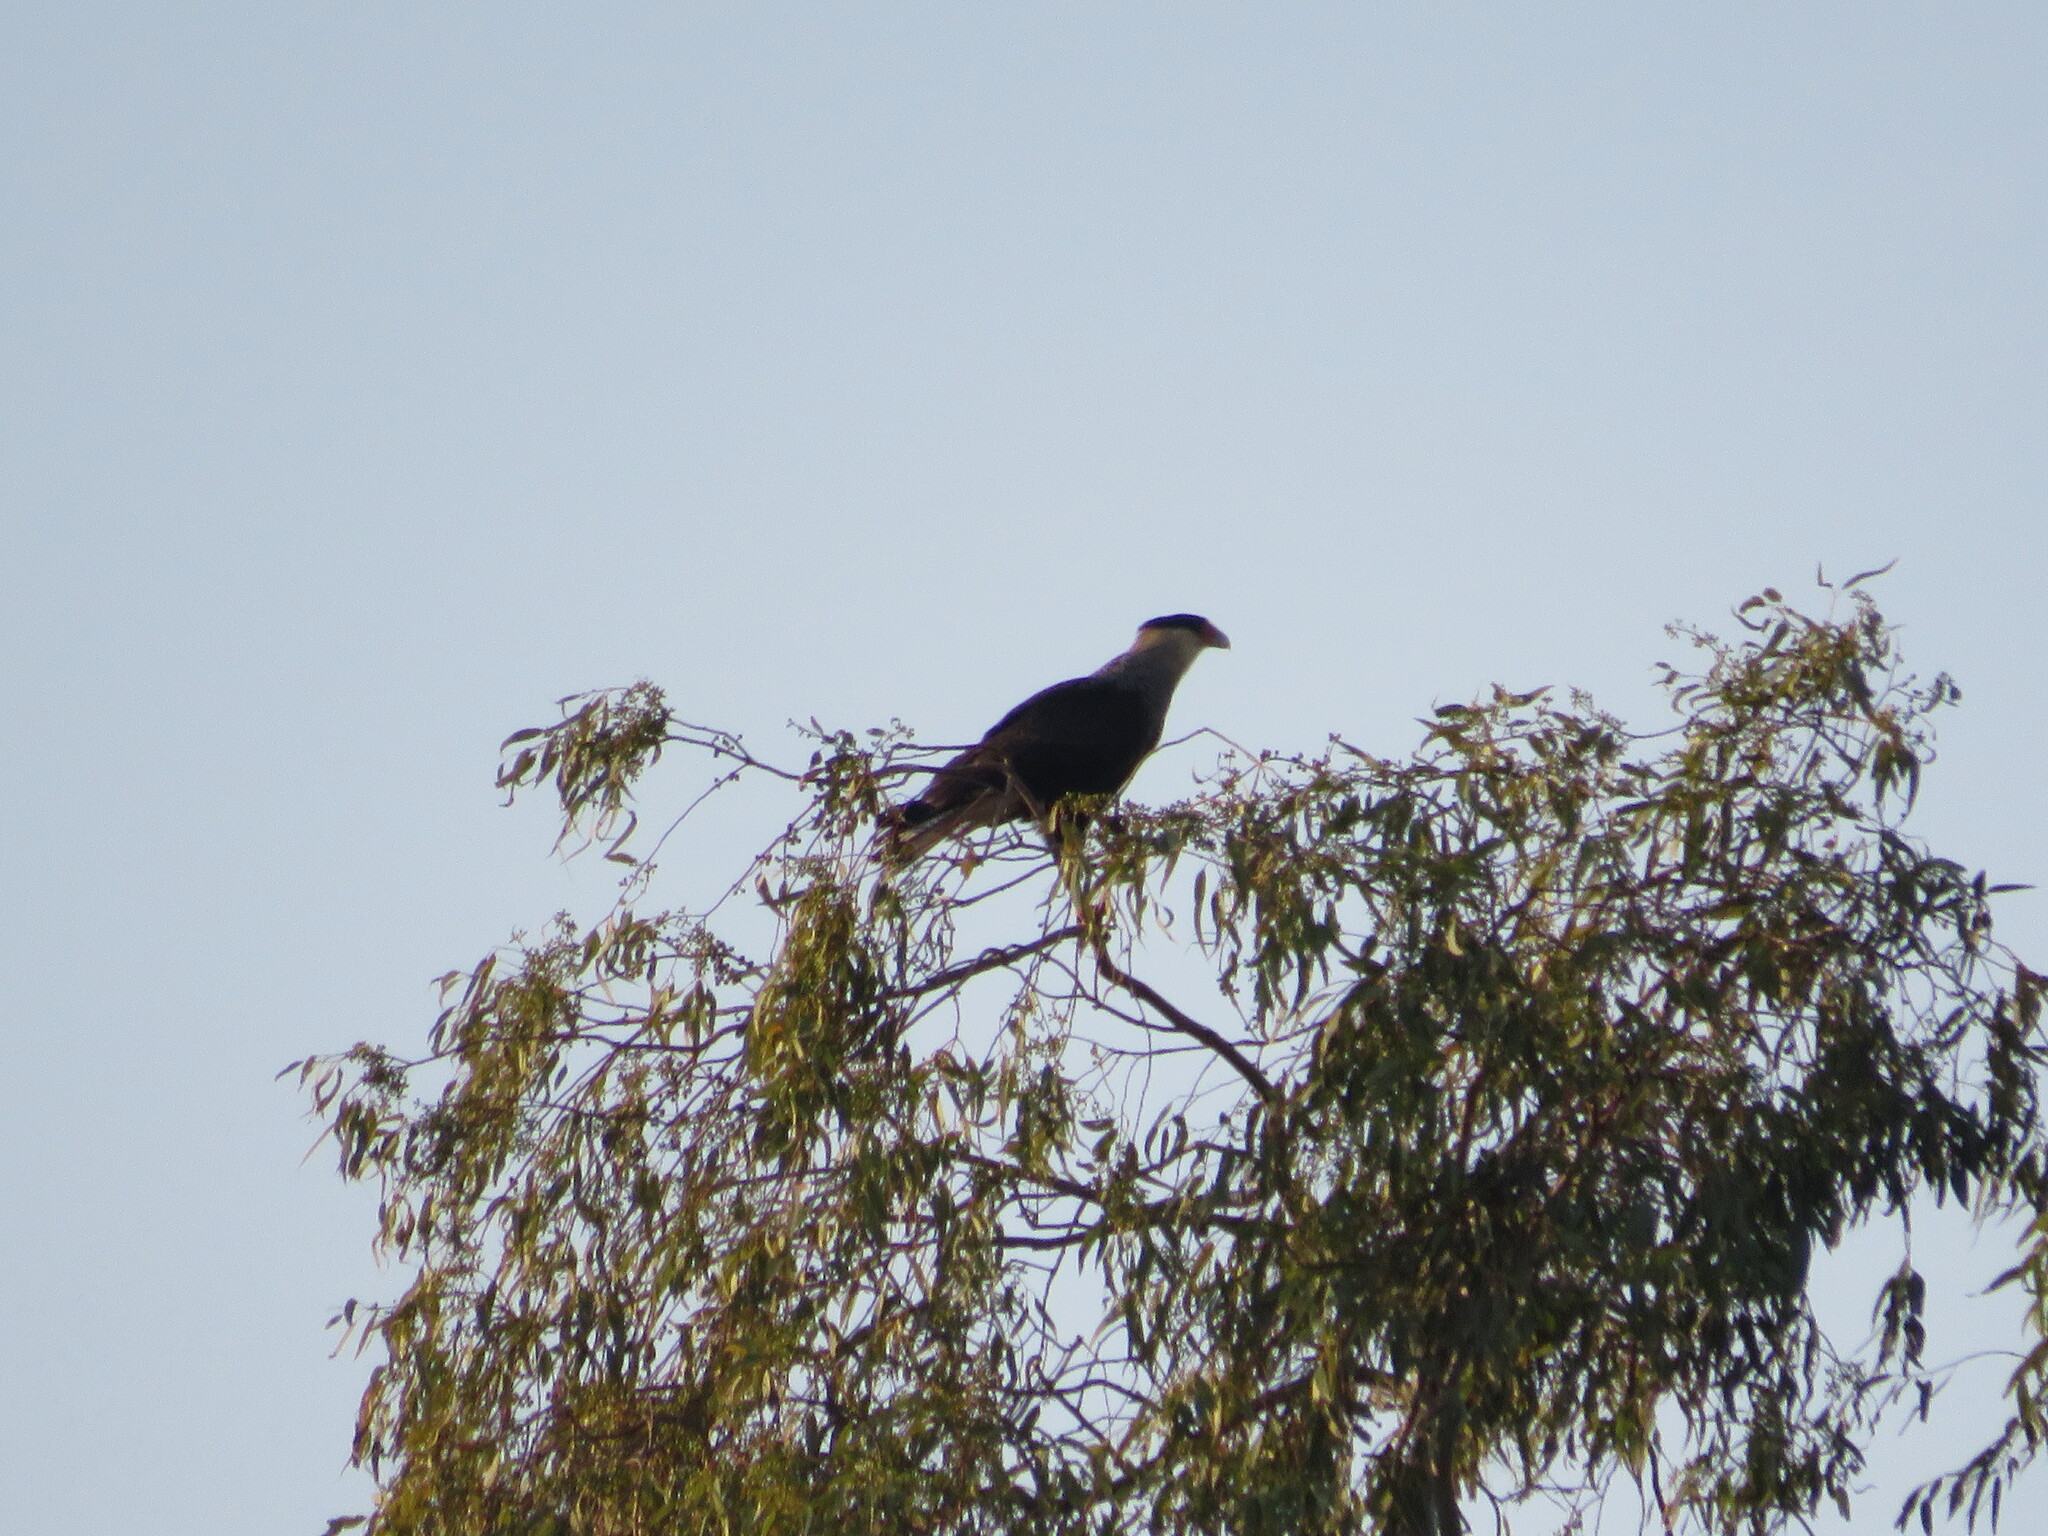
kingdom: Animalia
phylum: Chordata
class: Aves
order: Falconiformes
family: Falconidae
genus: Caracara
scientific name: Caracara plancus
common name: Southern caracara
